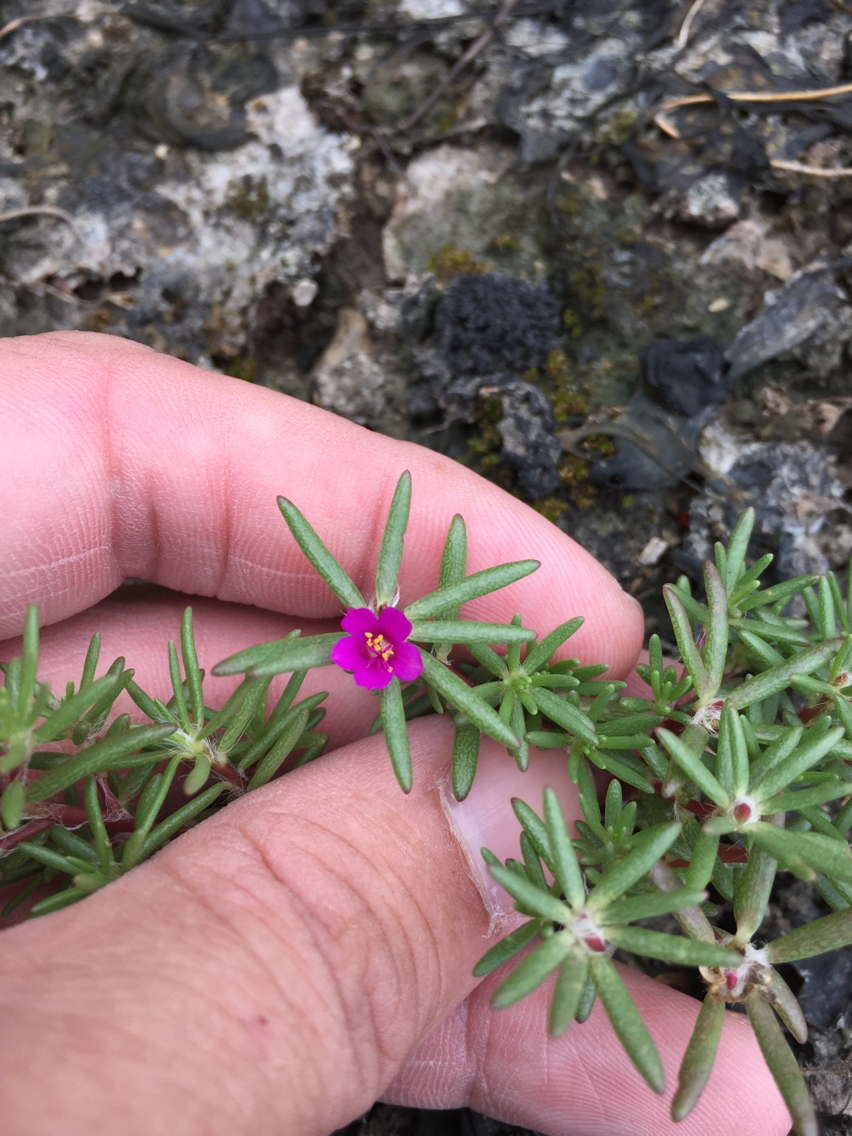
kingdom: Plantae
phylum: Tracheophyta
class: Magnoliopsida
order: Caryophyllales
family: Portulacaceae
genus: Portulaca
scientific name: Portulaca pilosa
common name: Kiss me quick
